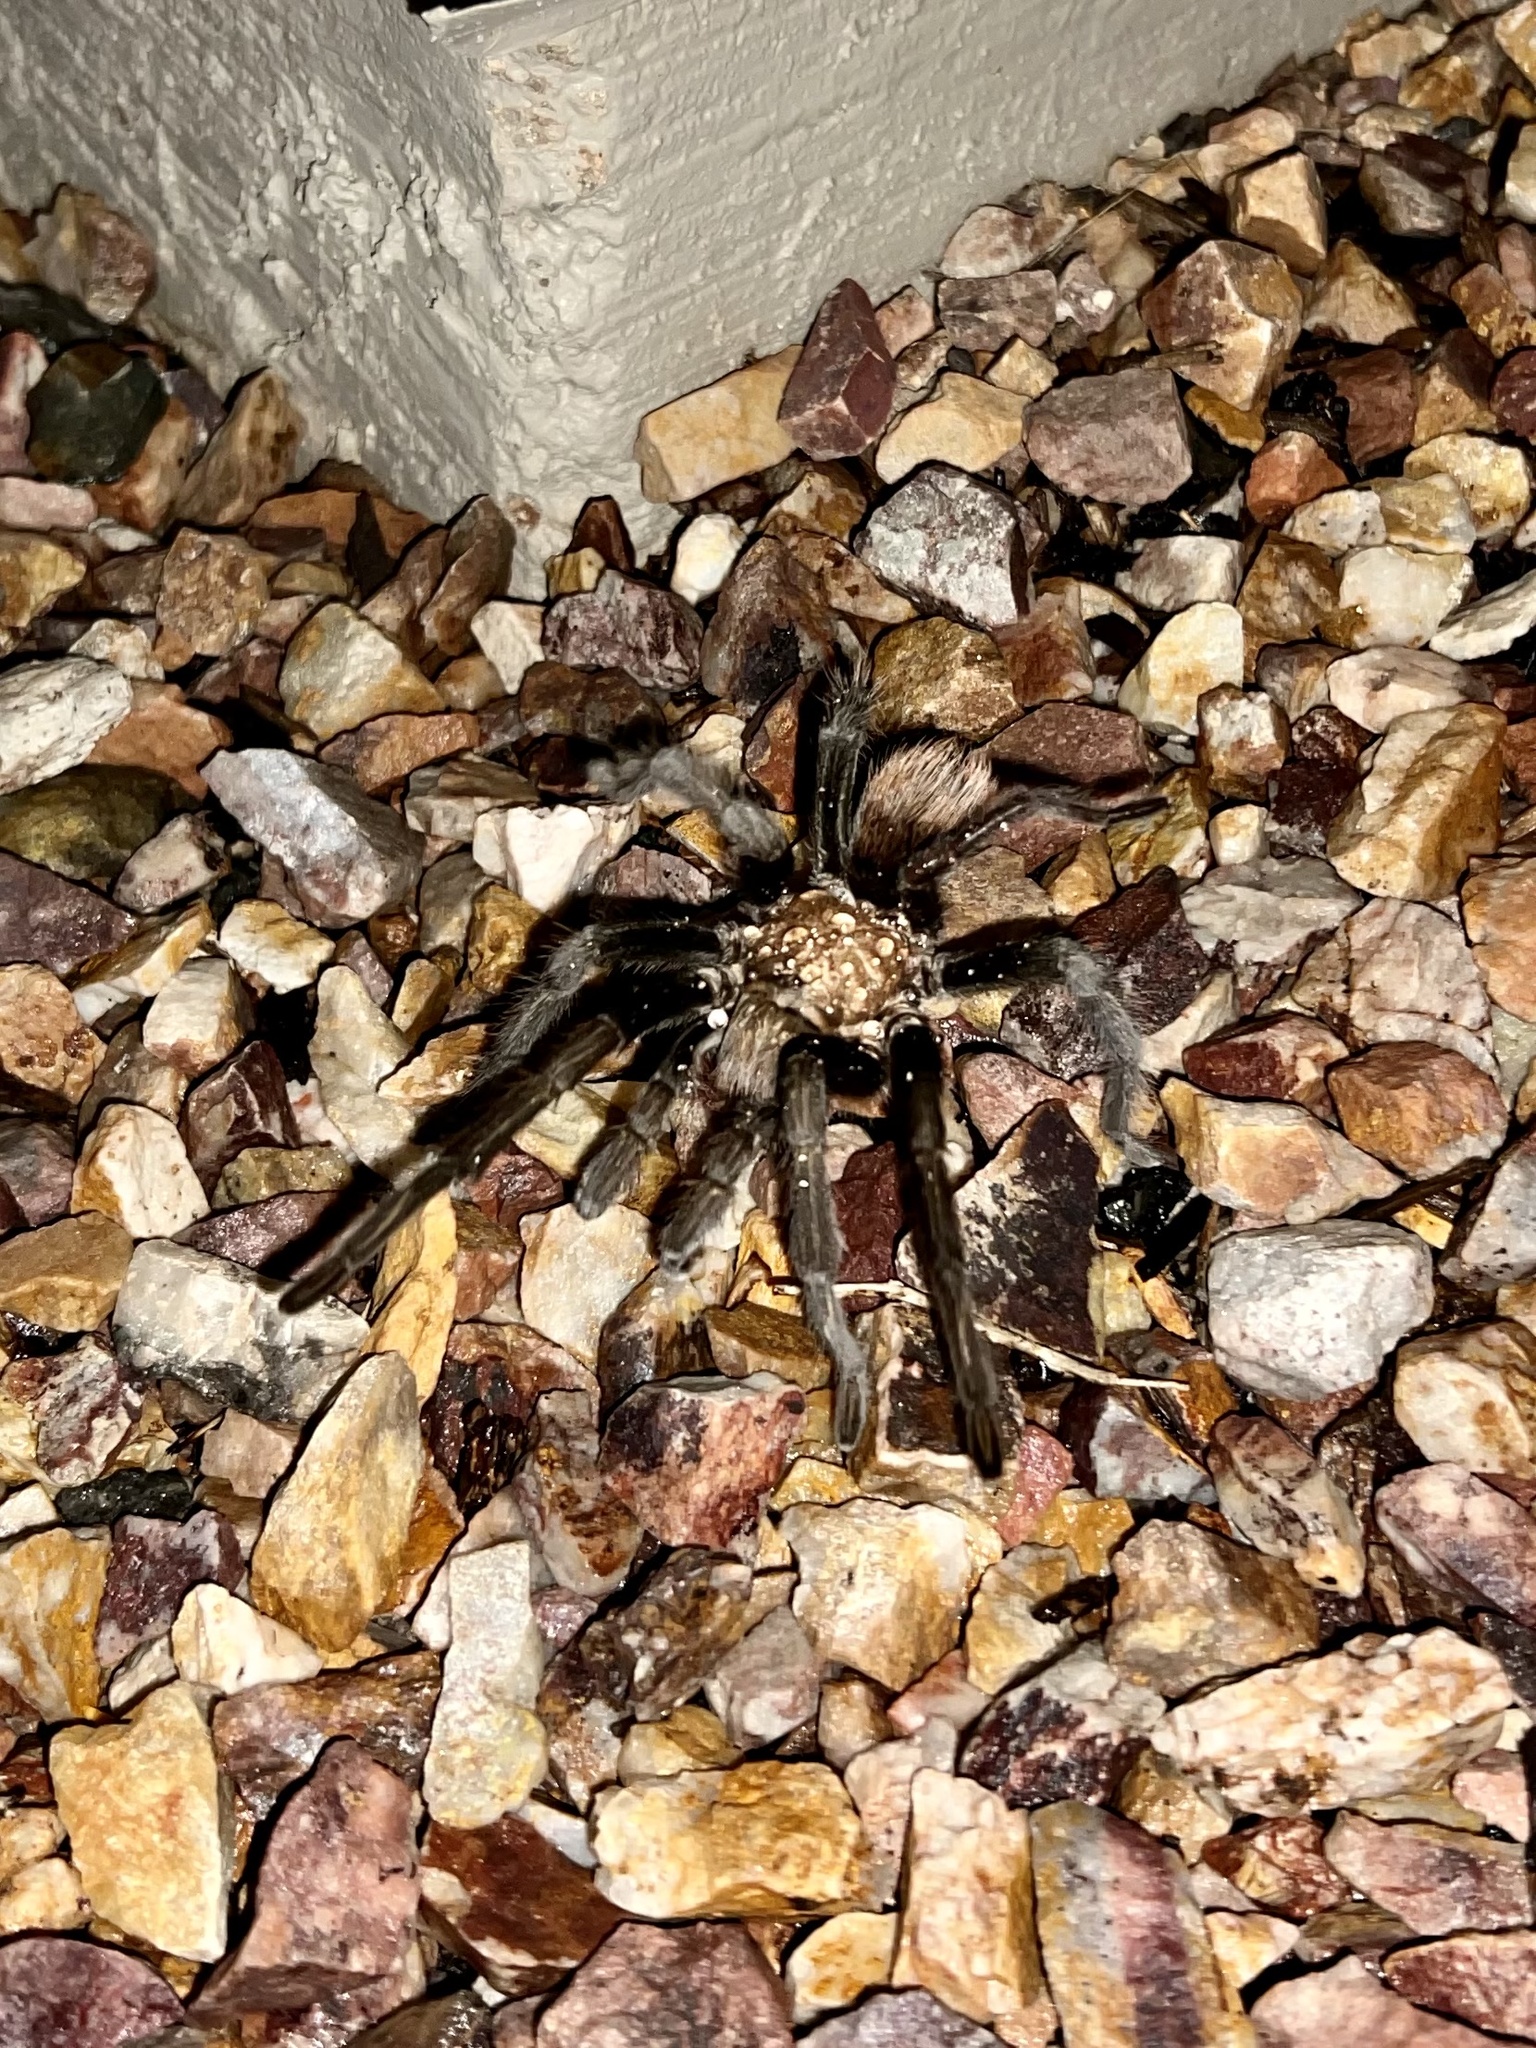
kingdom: Animalia
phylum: Arthropoda
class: Arachnida
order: Araneae
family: Theraphosidae
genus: Aphonopelma
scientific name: Aphonopelma hentzi
